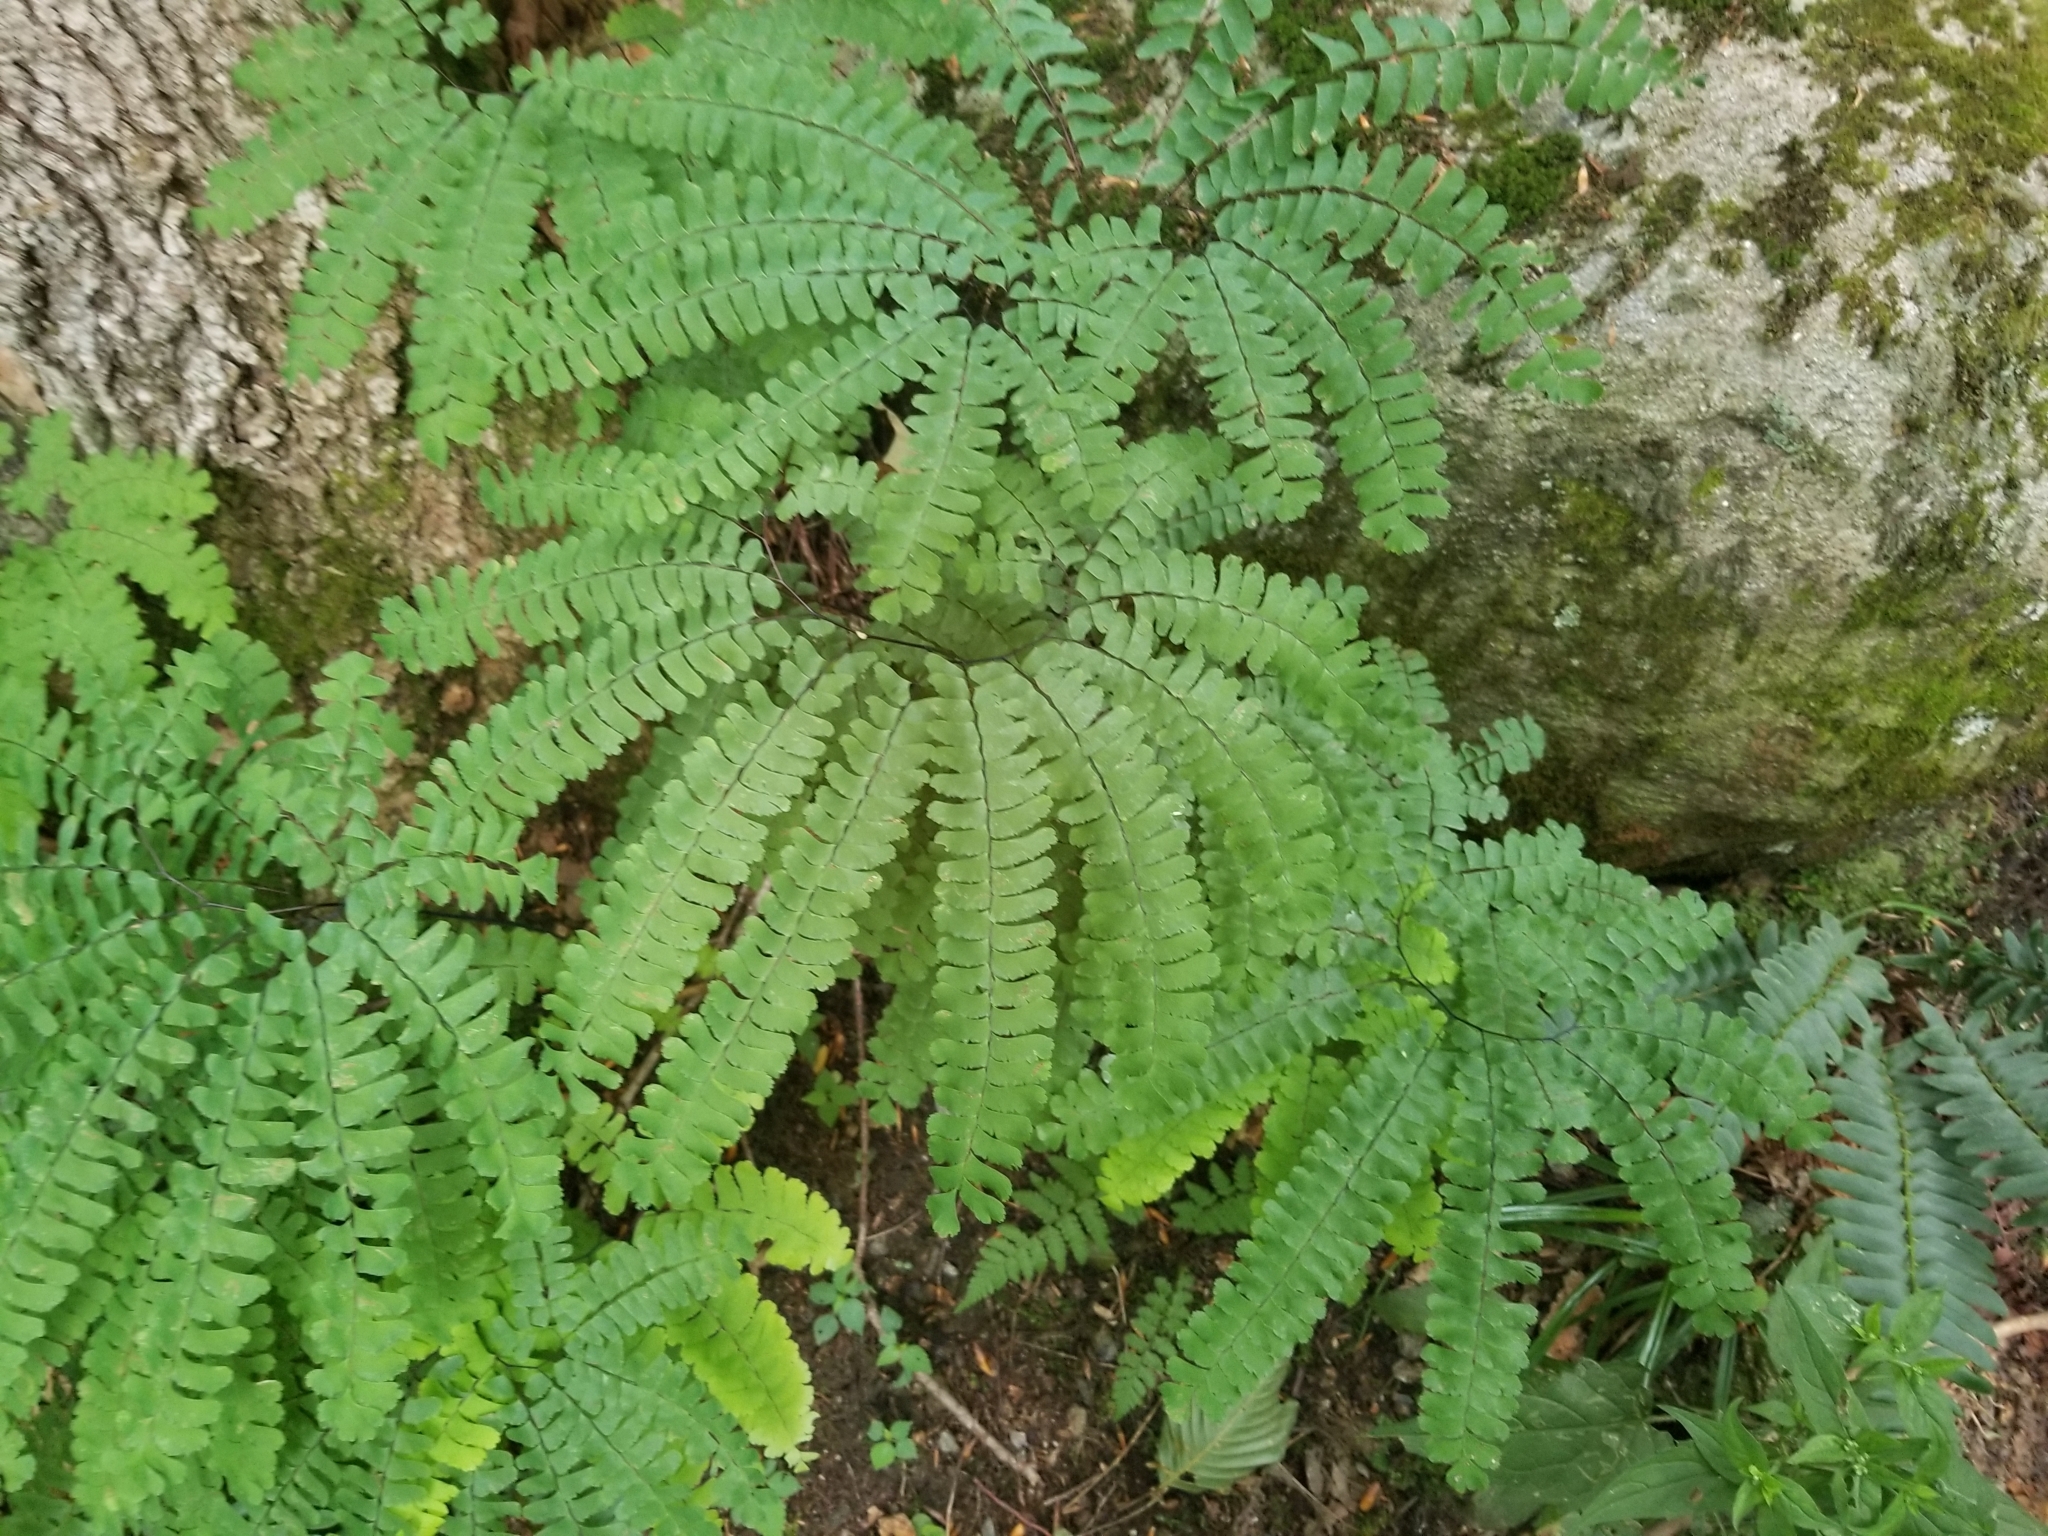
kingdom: Plantae
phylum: Tracheophyta
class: Polypodiopsida
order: Polypodiales
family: Pteridaceae
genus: Adiantum
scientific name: Adiantum pedatum
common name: Five-finger fern
